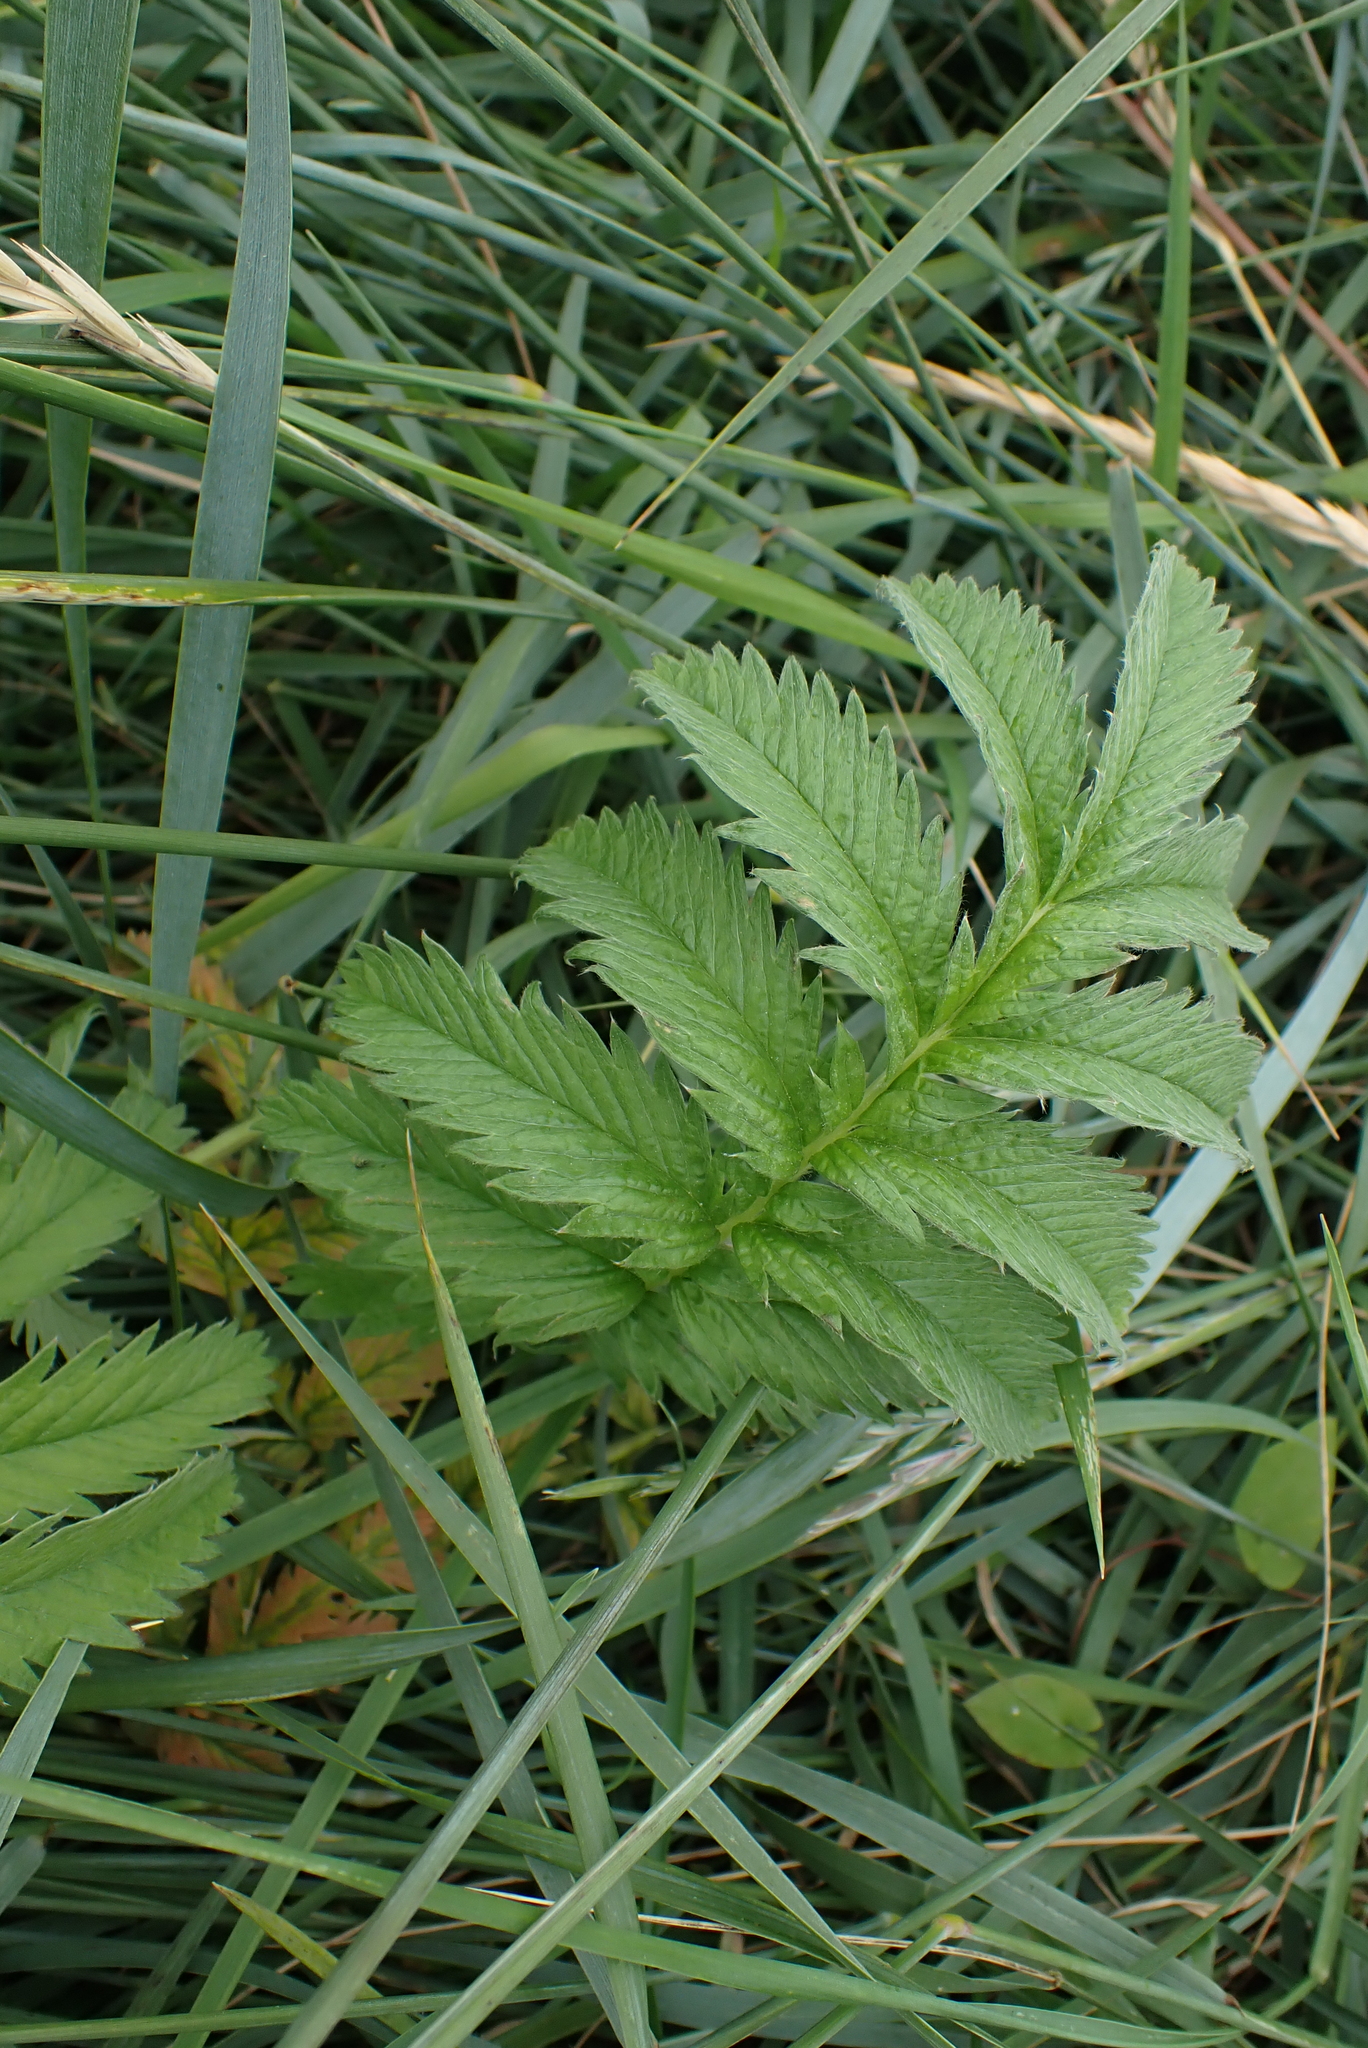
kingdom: Plantae
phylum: Tracheophyta
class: Magnoliopsida
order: Rosales
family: Rosaceae
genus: Argentina
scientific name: Argentina anserina
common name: Common silverweed
